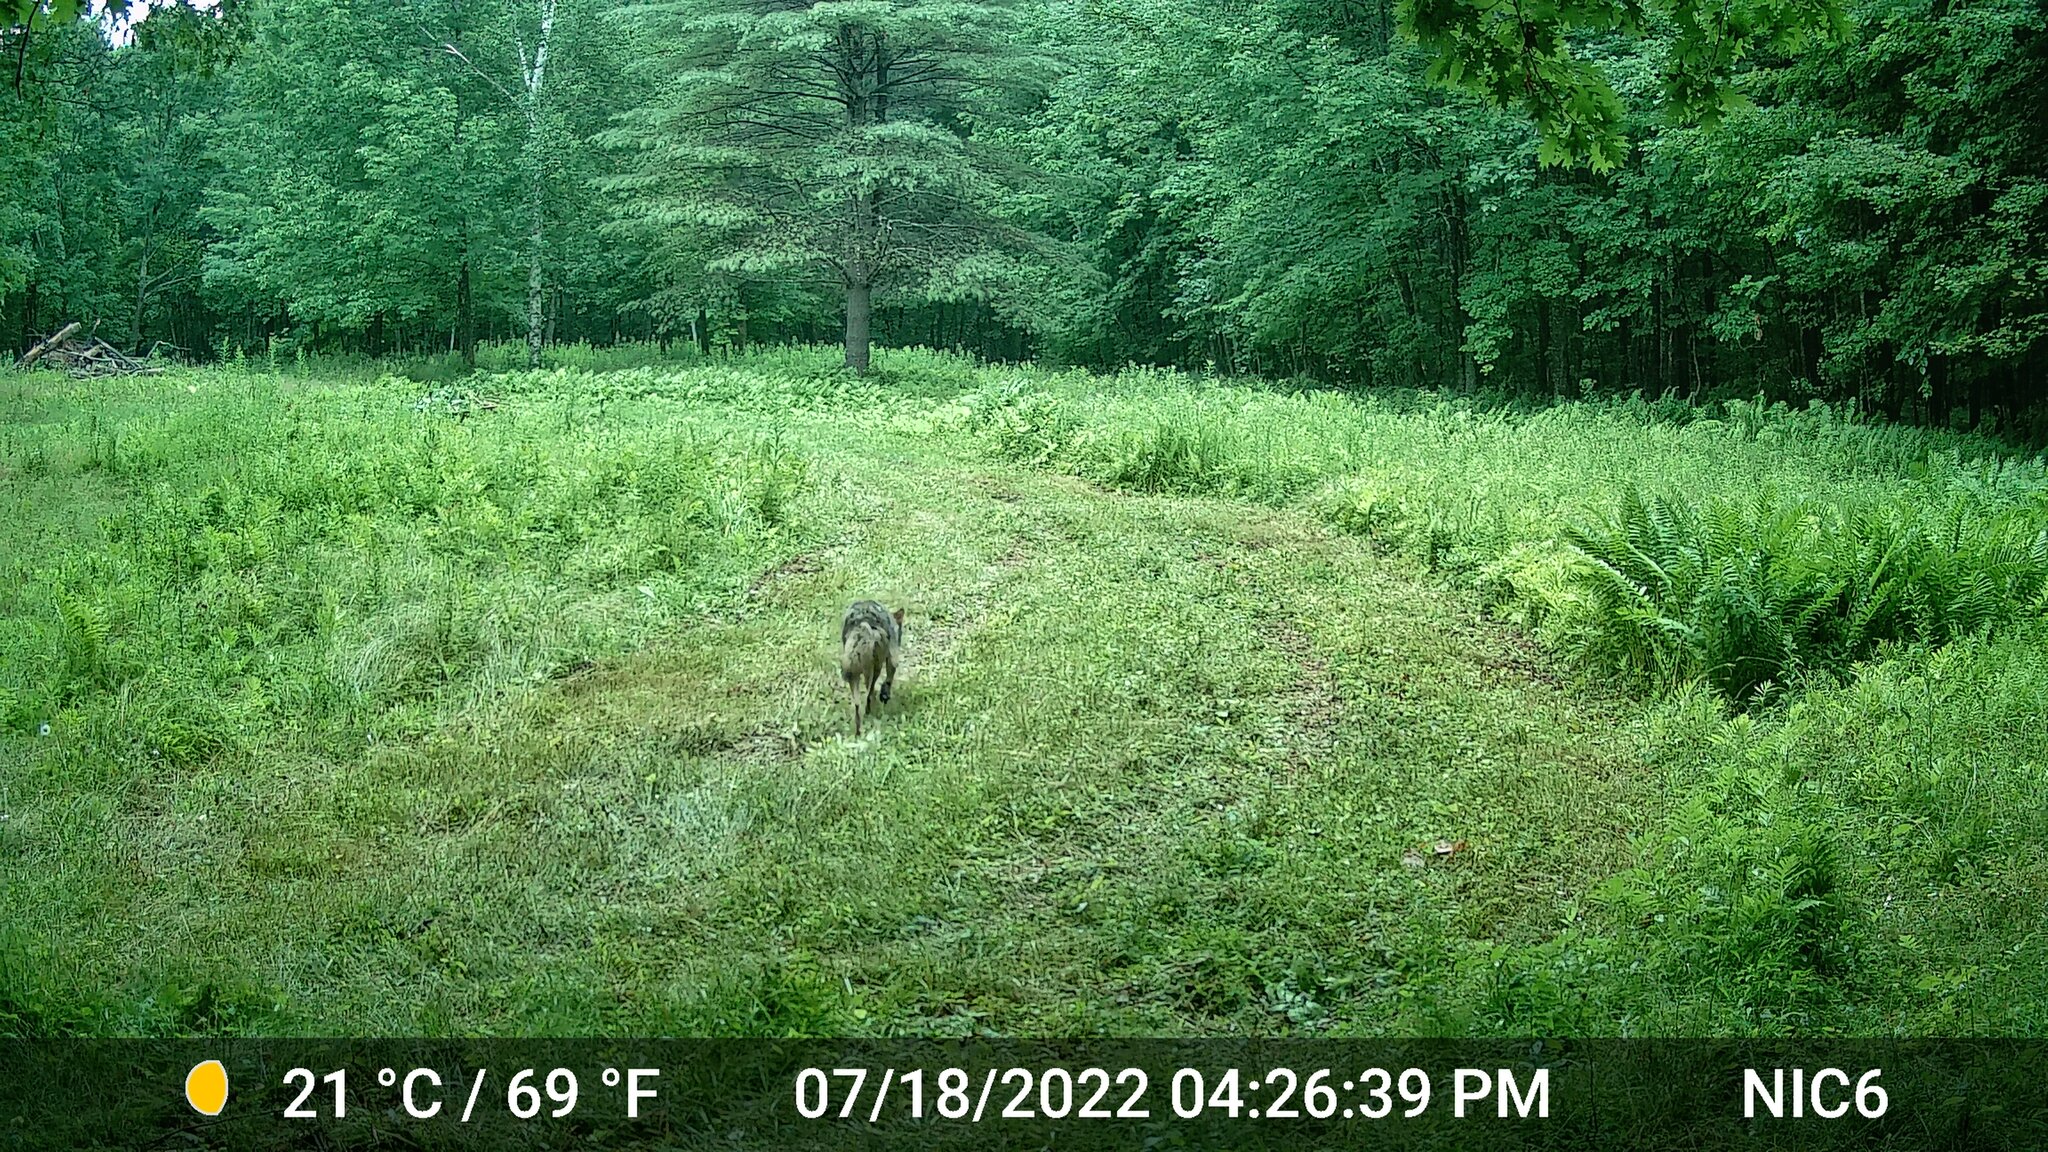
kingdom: Animalia
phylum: Chordata
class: Mammalia
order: Carnivora
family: Canidae
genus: Canis
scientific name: Canis latrans
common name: Coyote
